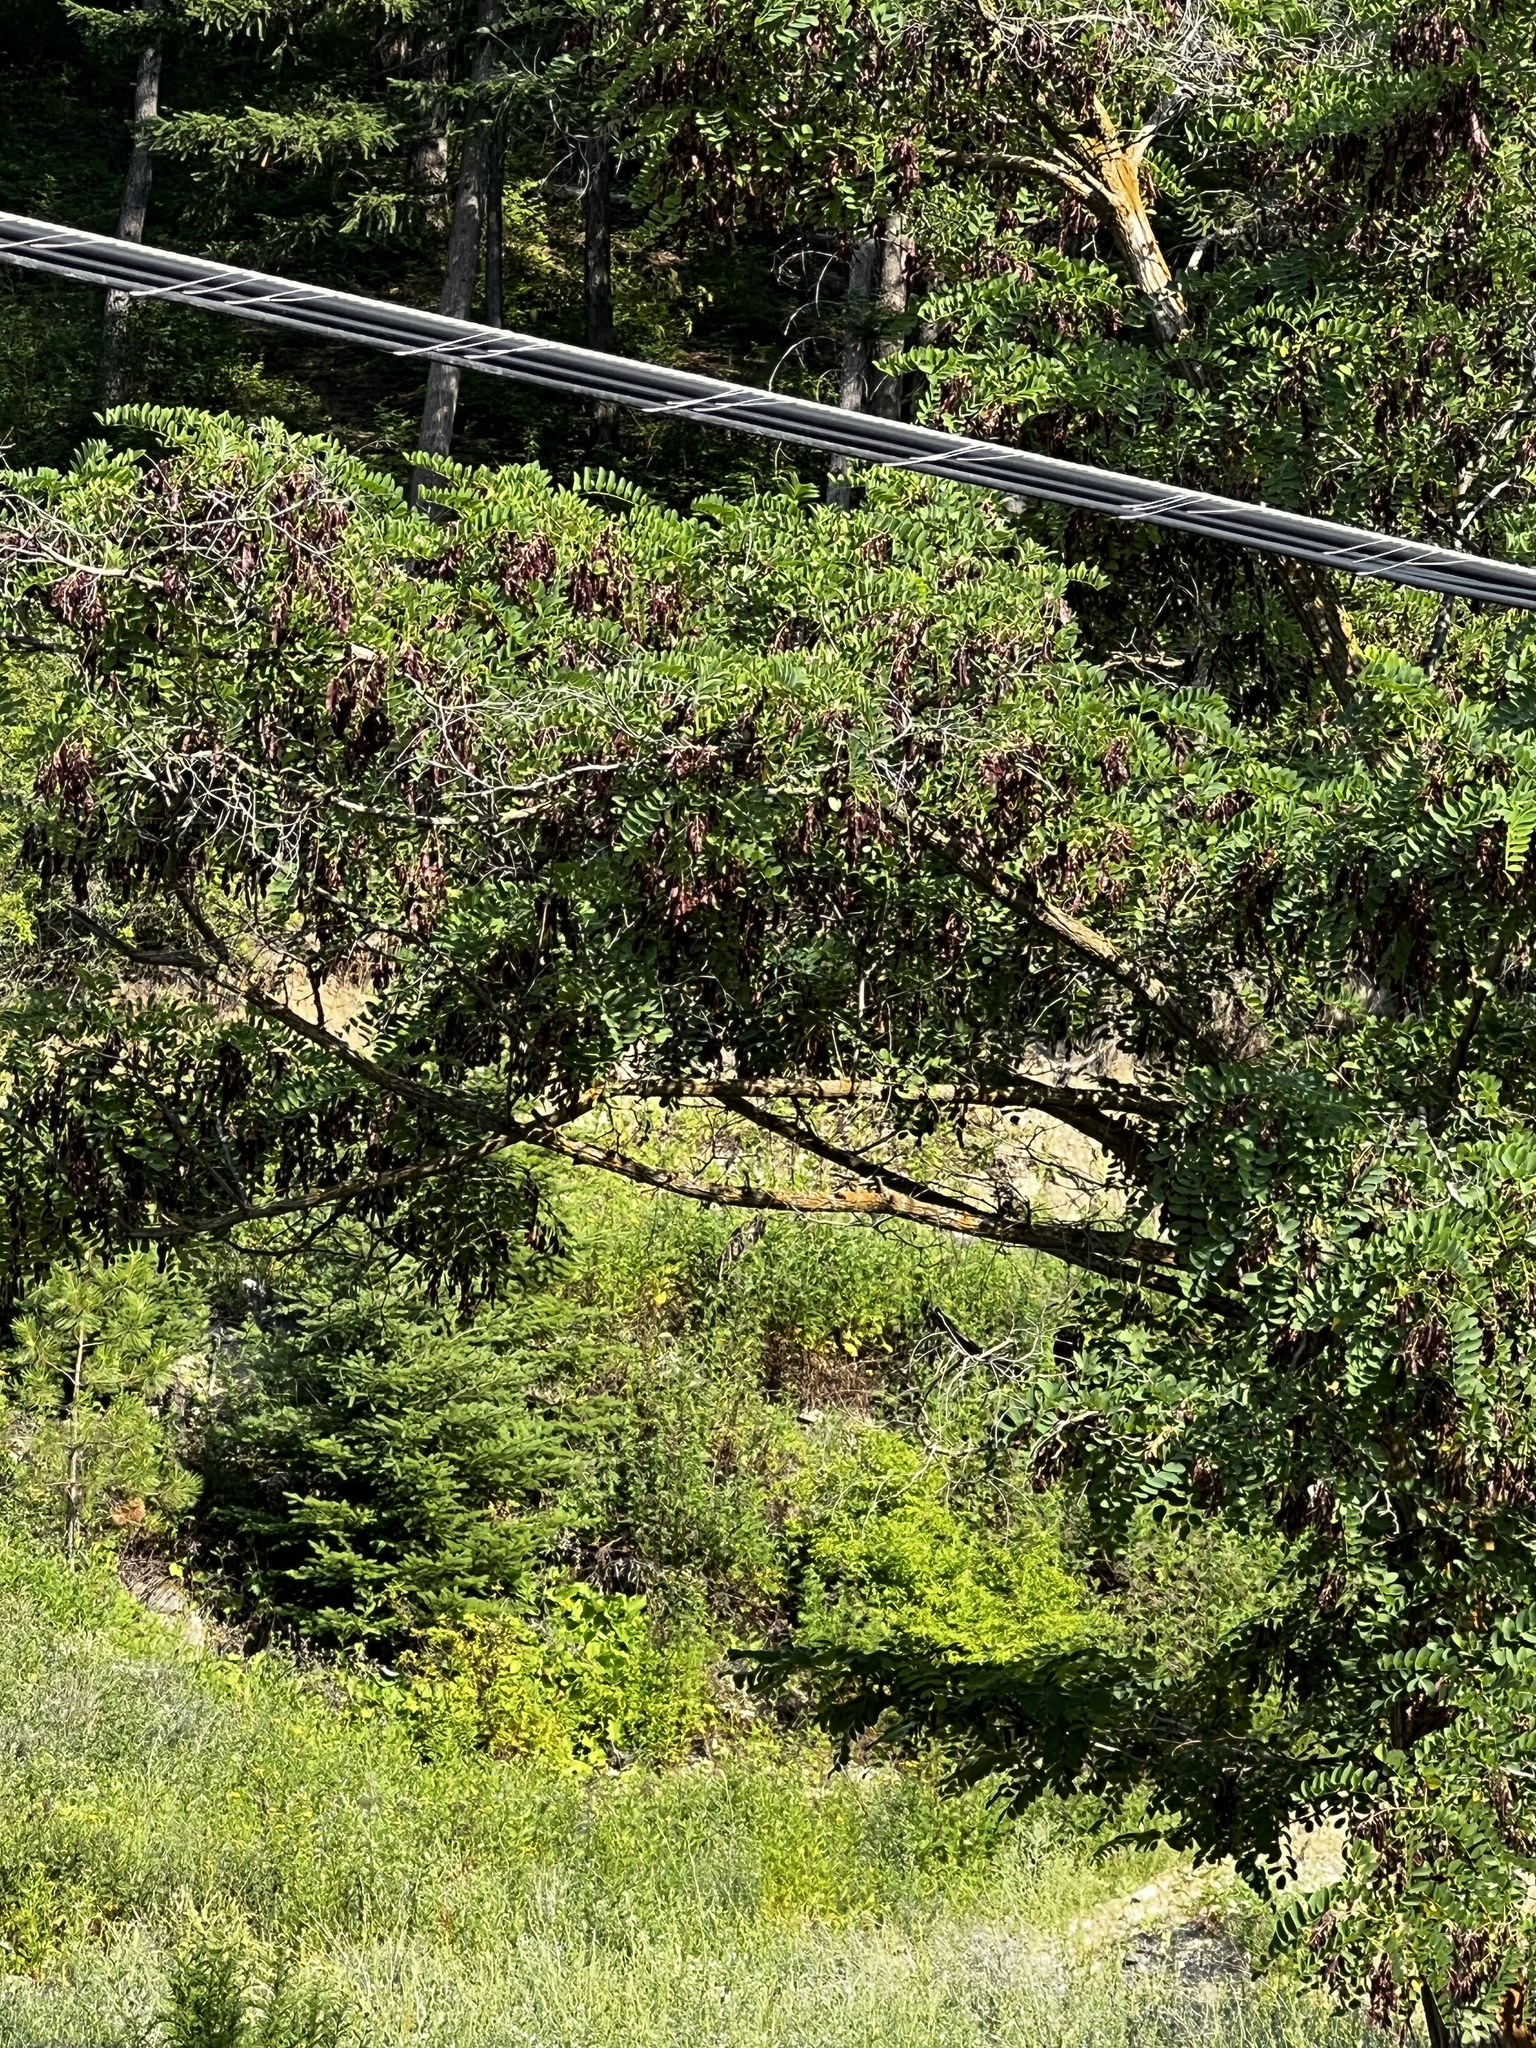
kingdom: Plantae
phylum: Tracheophyta
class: Magnoliopsida
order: Fabales
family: Fabaceae
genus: Robinia
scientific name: Robinia pseudoacacia
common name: Black locust
